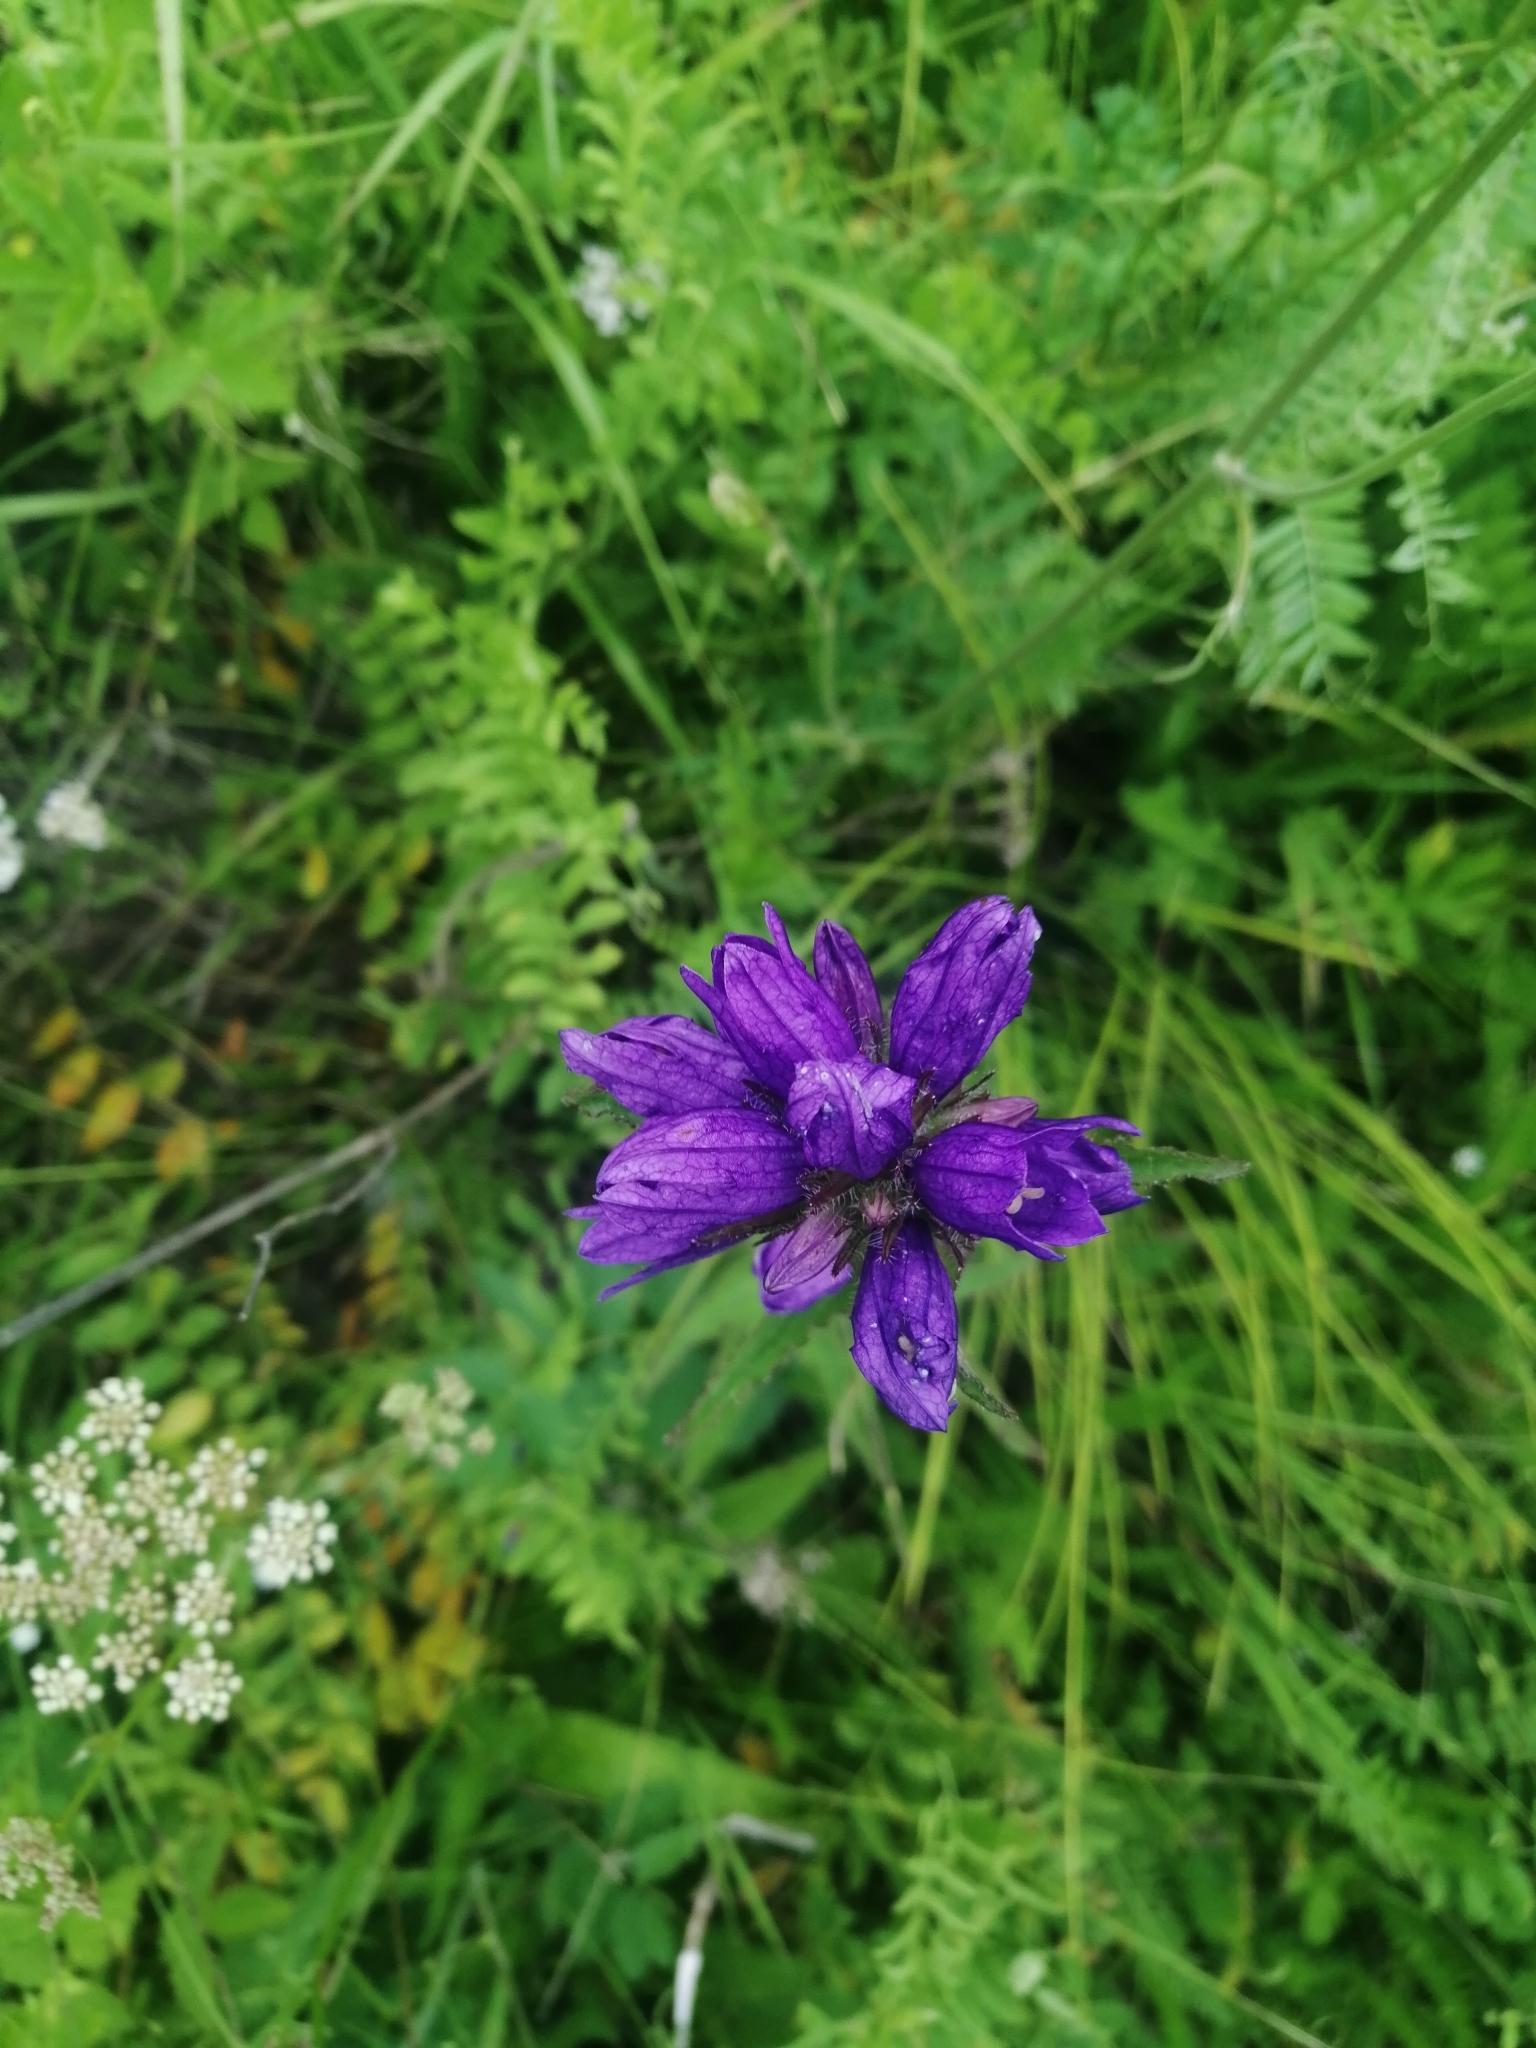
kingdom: Plantae
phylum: Tracheophyta
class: Magnoliopsida
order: Asterales
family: Campanulaceae
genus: Campanula
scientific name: Campanula glomerata
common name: Clustered bellflower
